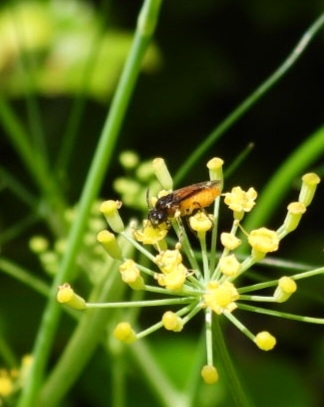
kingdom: Animalia
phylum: Arthropoda
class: Insecta
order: Hymenoptera
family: Argidae
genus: Arge
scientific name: Arge pagana
